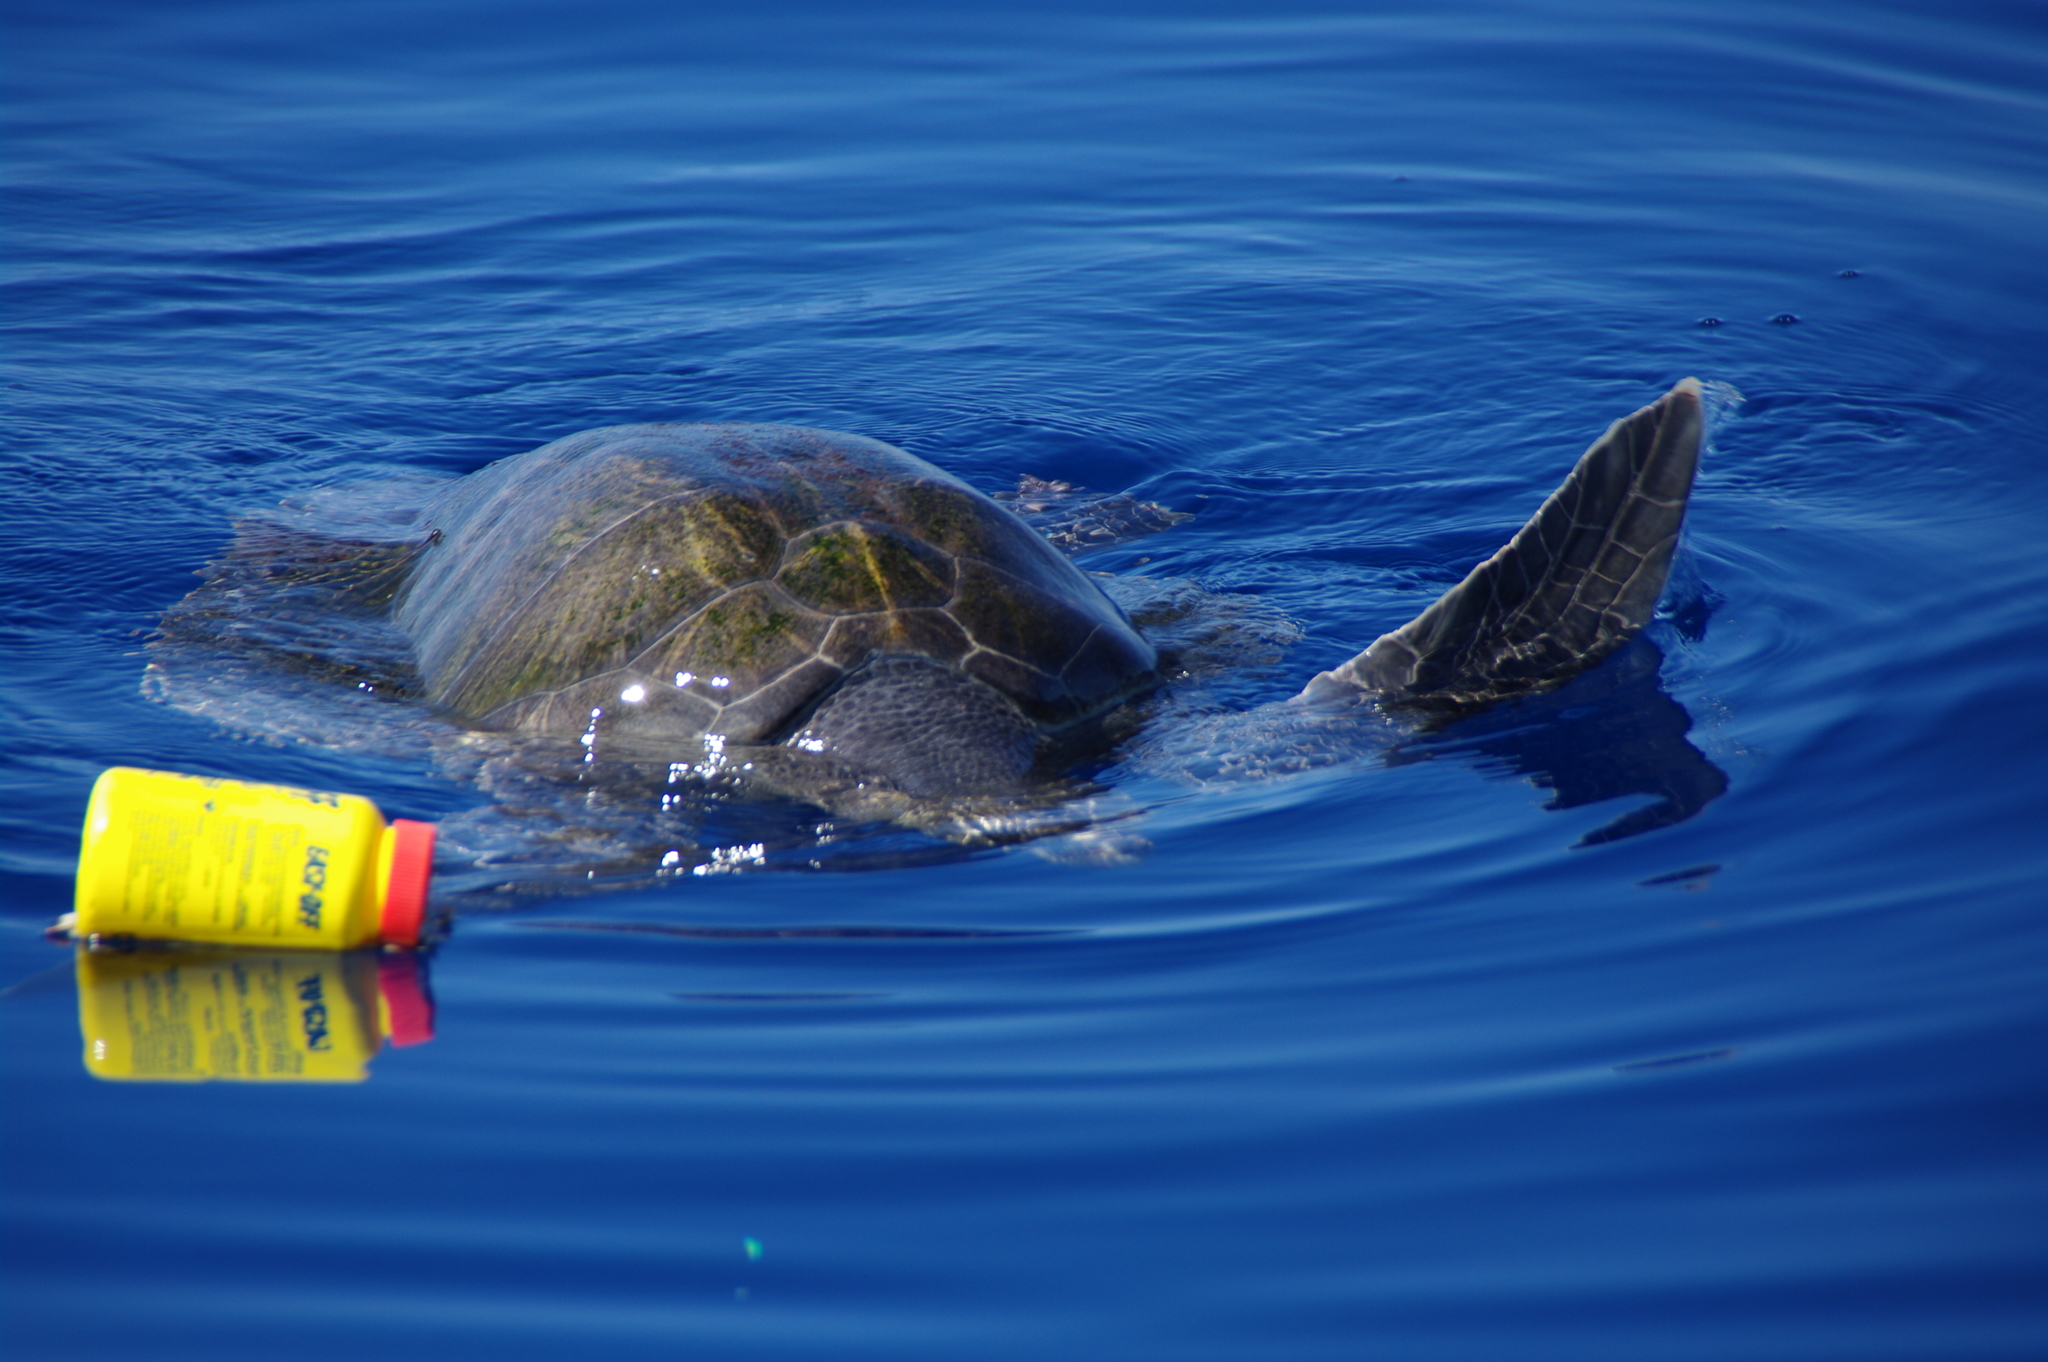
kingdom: Animalia
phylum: Chordata
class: Testudines
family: Cheloniidae
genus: Chelonia
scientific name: Chelonia mydas
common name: Green turtle
